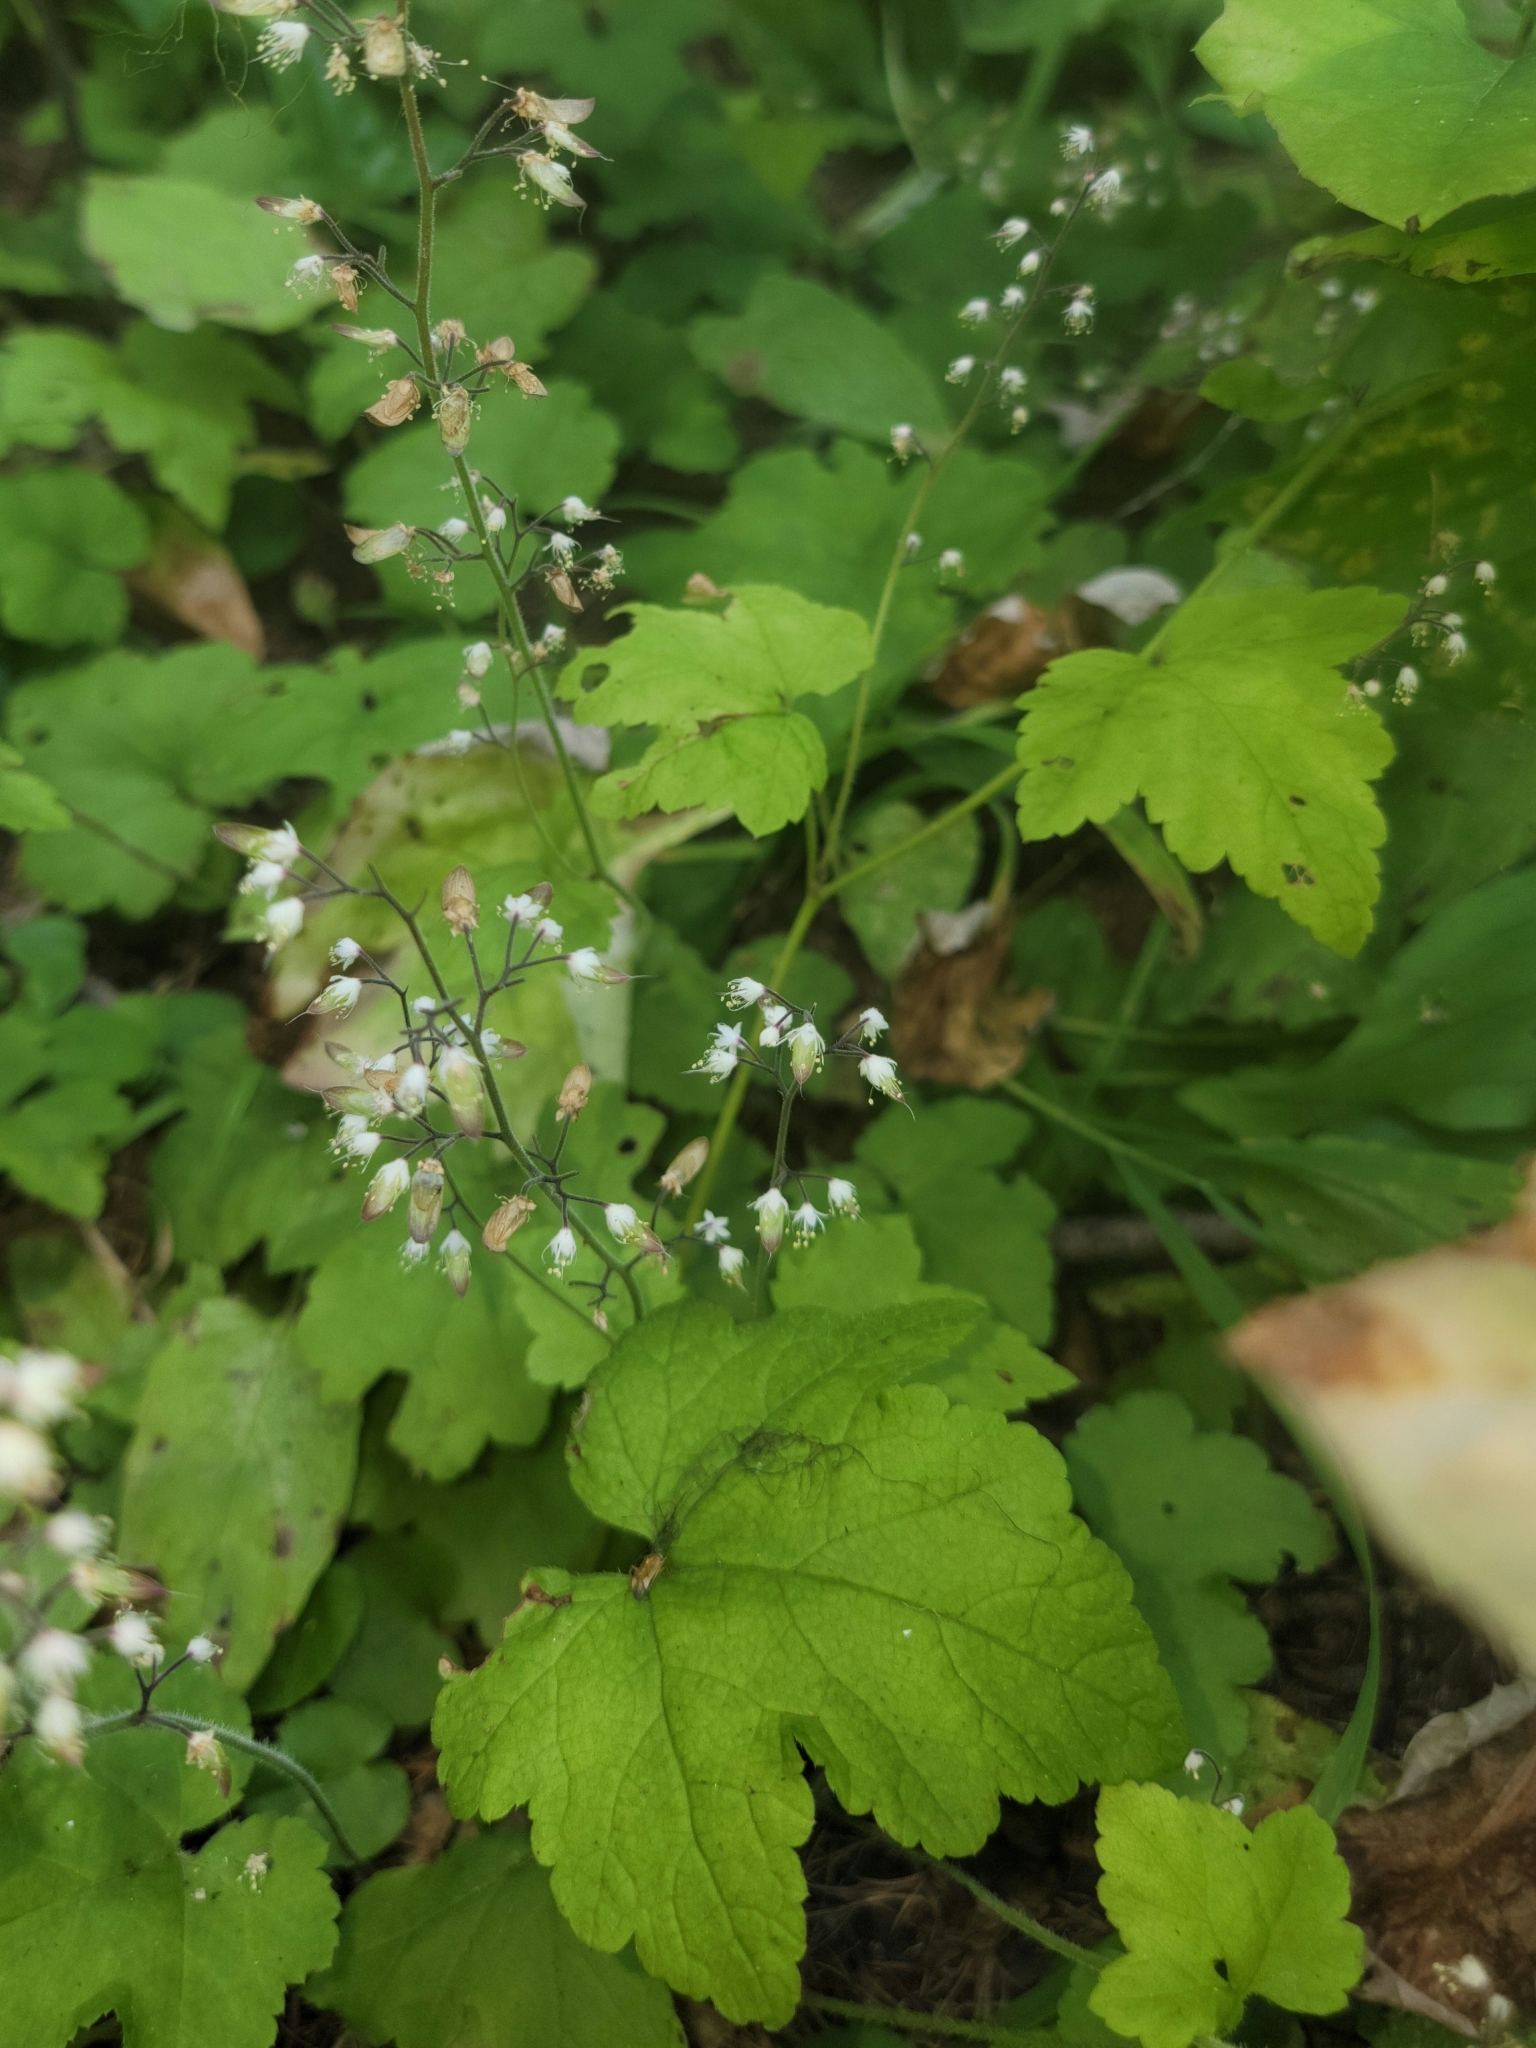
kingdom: Plantae
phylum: Tracheophyta
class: Magnoliopsida
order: Saxifragales
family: Saxifragaceae
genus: Tiarella
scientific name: Tiarella trifoliata
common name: Sugar-scoop
